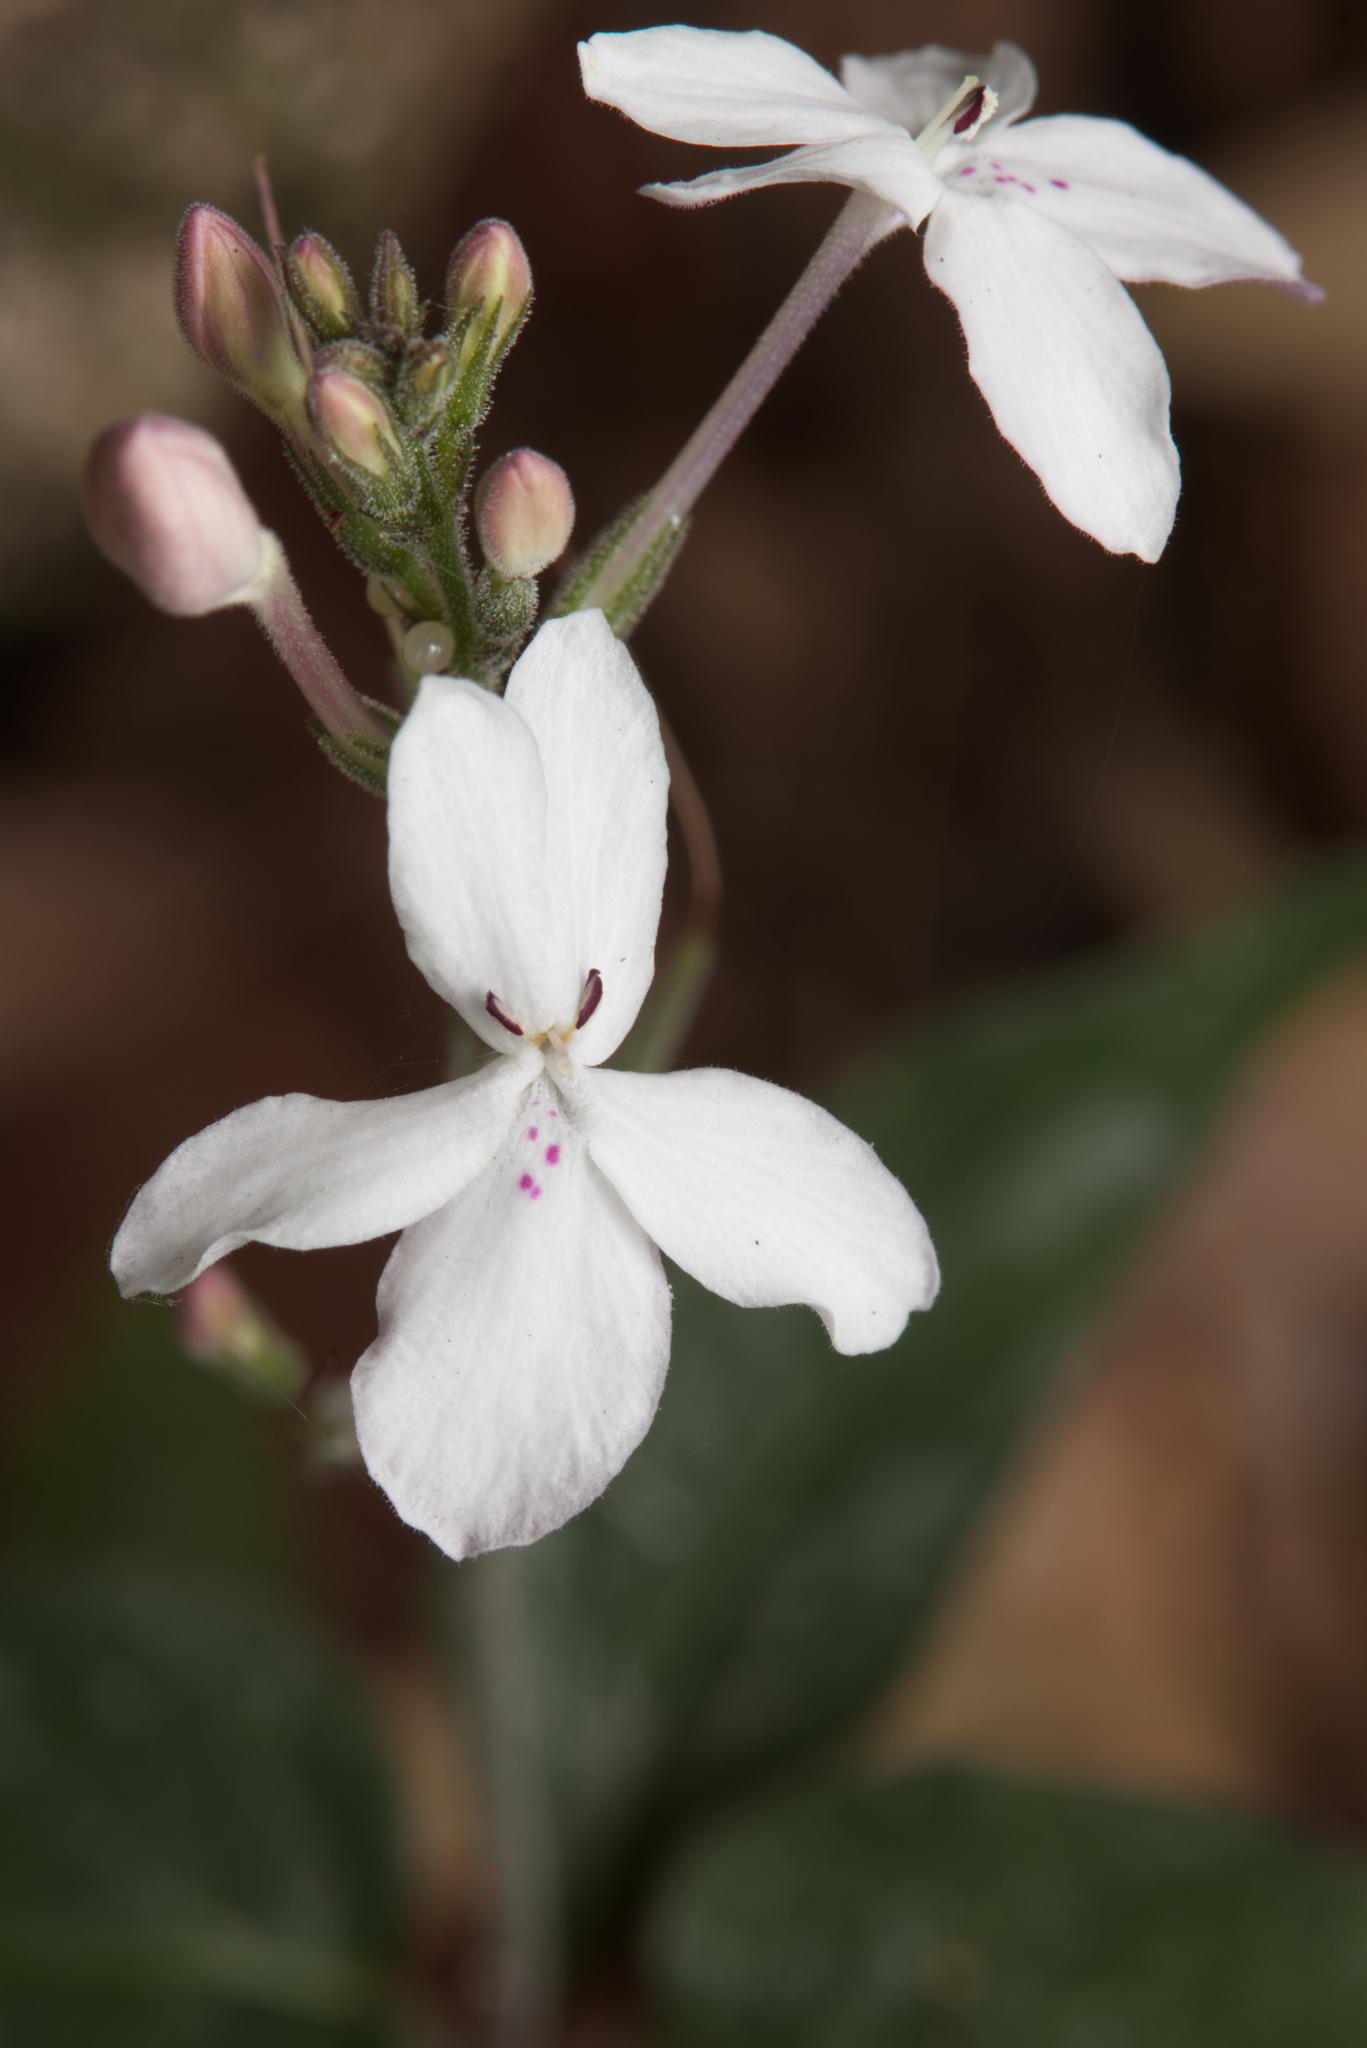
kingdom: Plantae
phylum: Tracheophyta
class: Magnoliopsida
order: Lamiales
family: Acanthaceae
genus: Pseuderanthemum
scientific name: Pseuderanthemum variabile
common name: Night and afternoon
